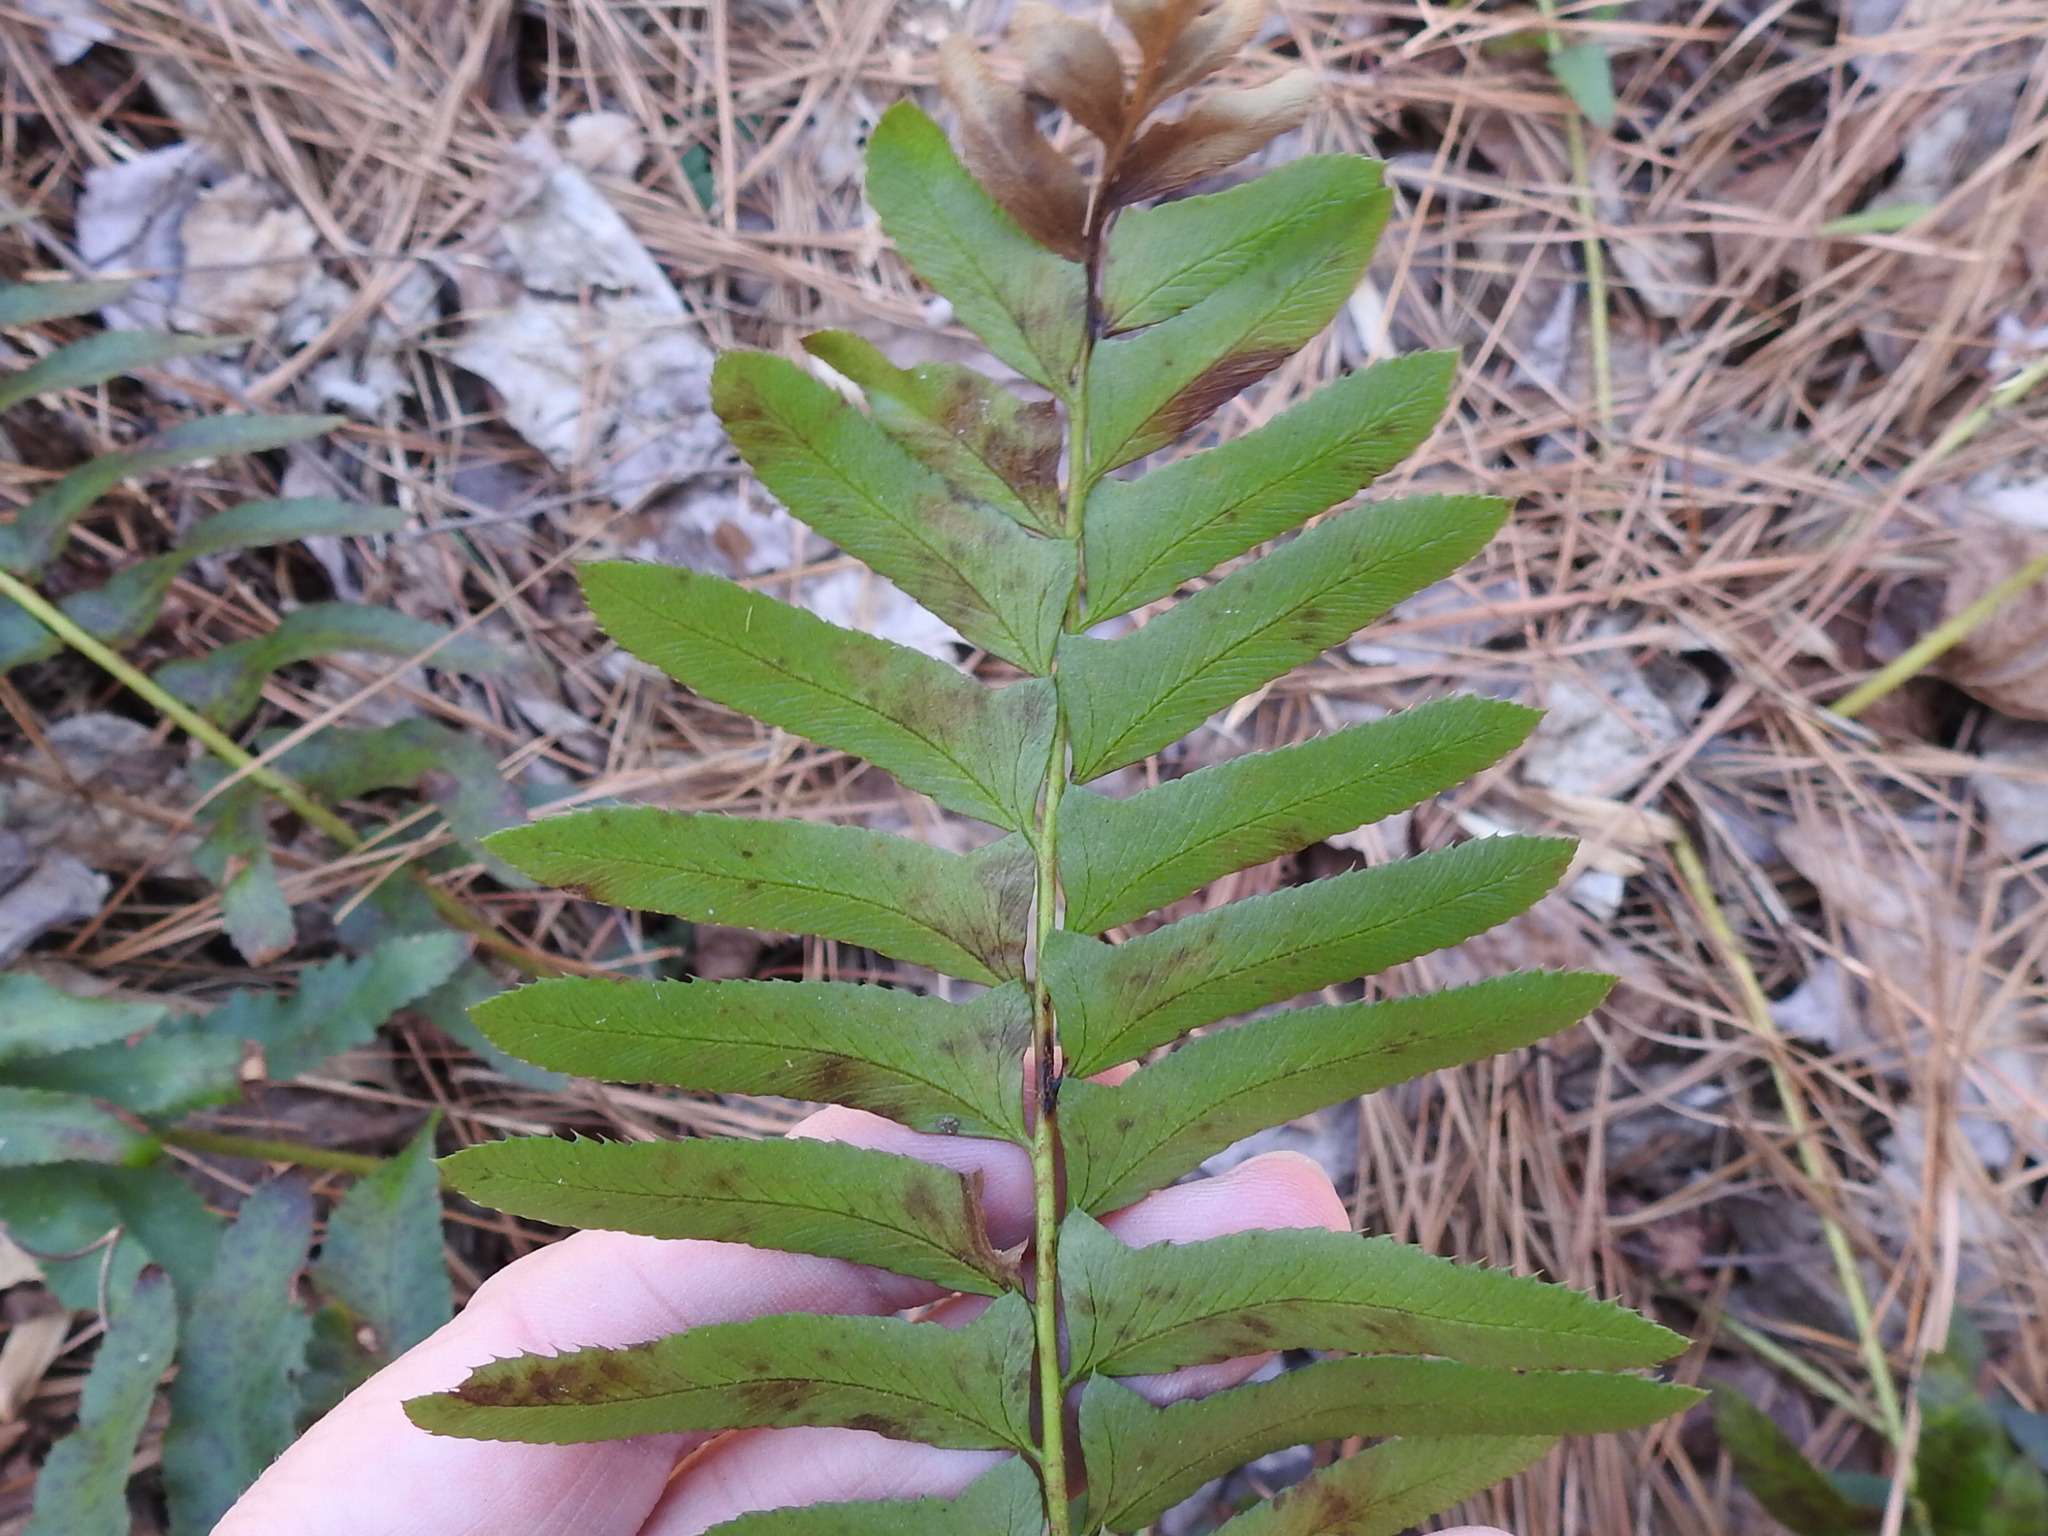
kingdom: Plantae
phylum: Tracheophyta
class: Polypodiopsida
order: Polypodiales
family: Dryopteridaceae
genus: Polystichum
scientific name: Polystichum acrostichoides
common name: Christmas fern
